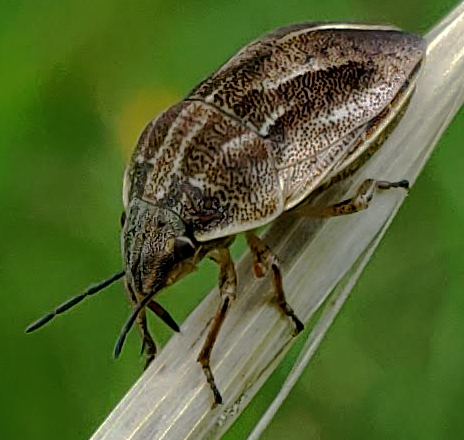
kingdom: Animalia
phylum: Arthropoda
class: Insecta
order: Hemiptera
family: Scutelleridae
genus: Homaemus
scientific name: Homaemus bijugis
